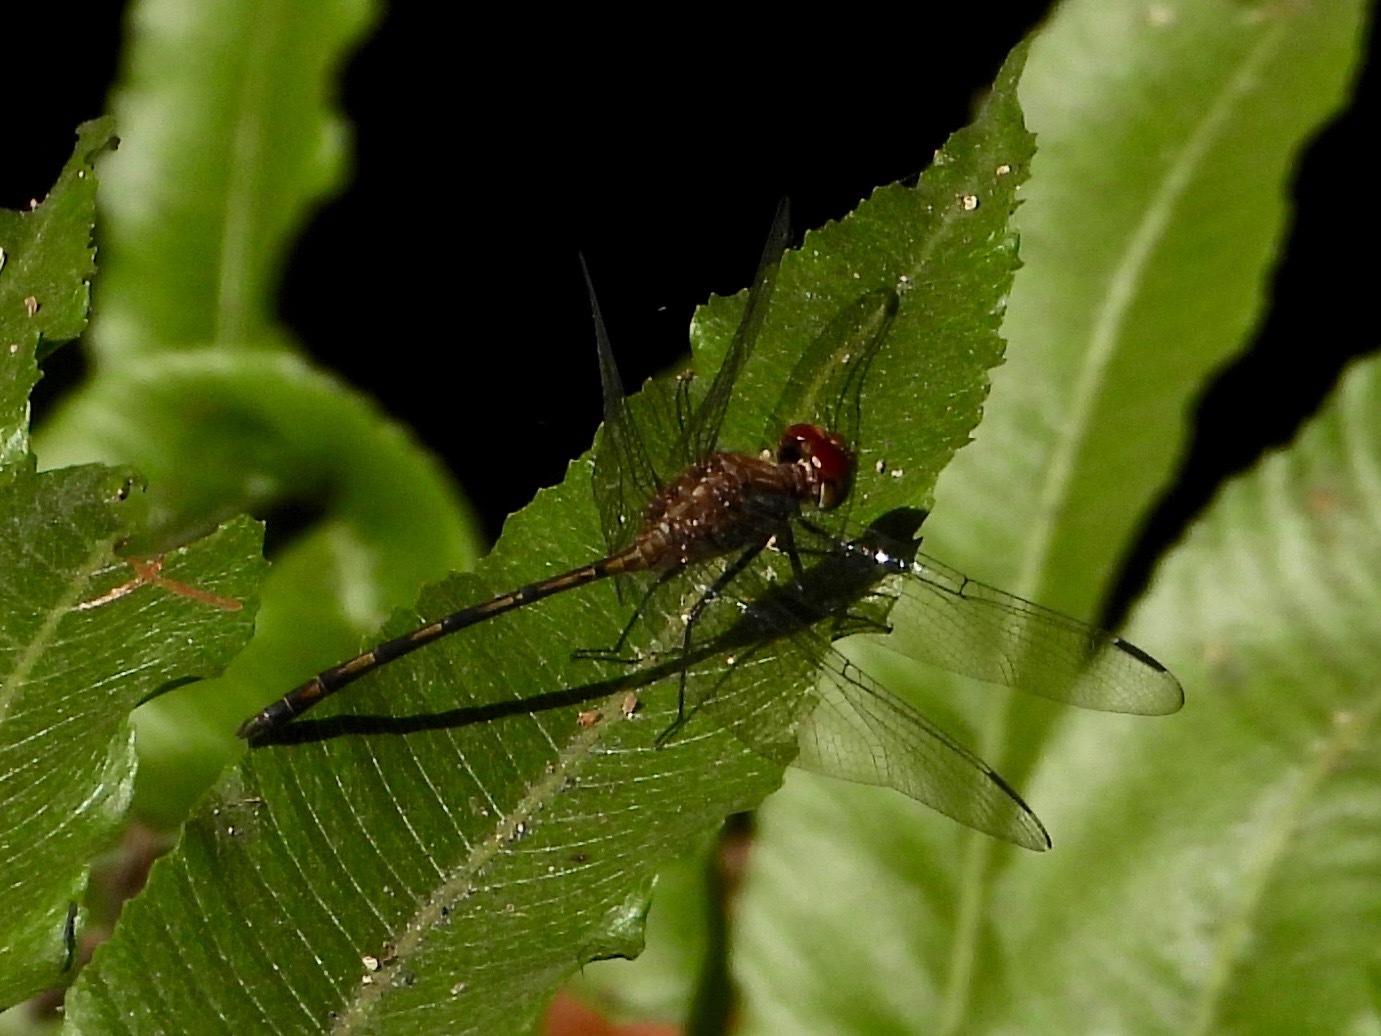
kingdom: Animalia
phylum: Arthropoda
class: Insecta
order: Odonata
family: Libellulidae
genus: Dythemis
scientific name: Dythemis sterilis
